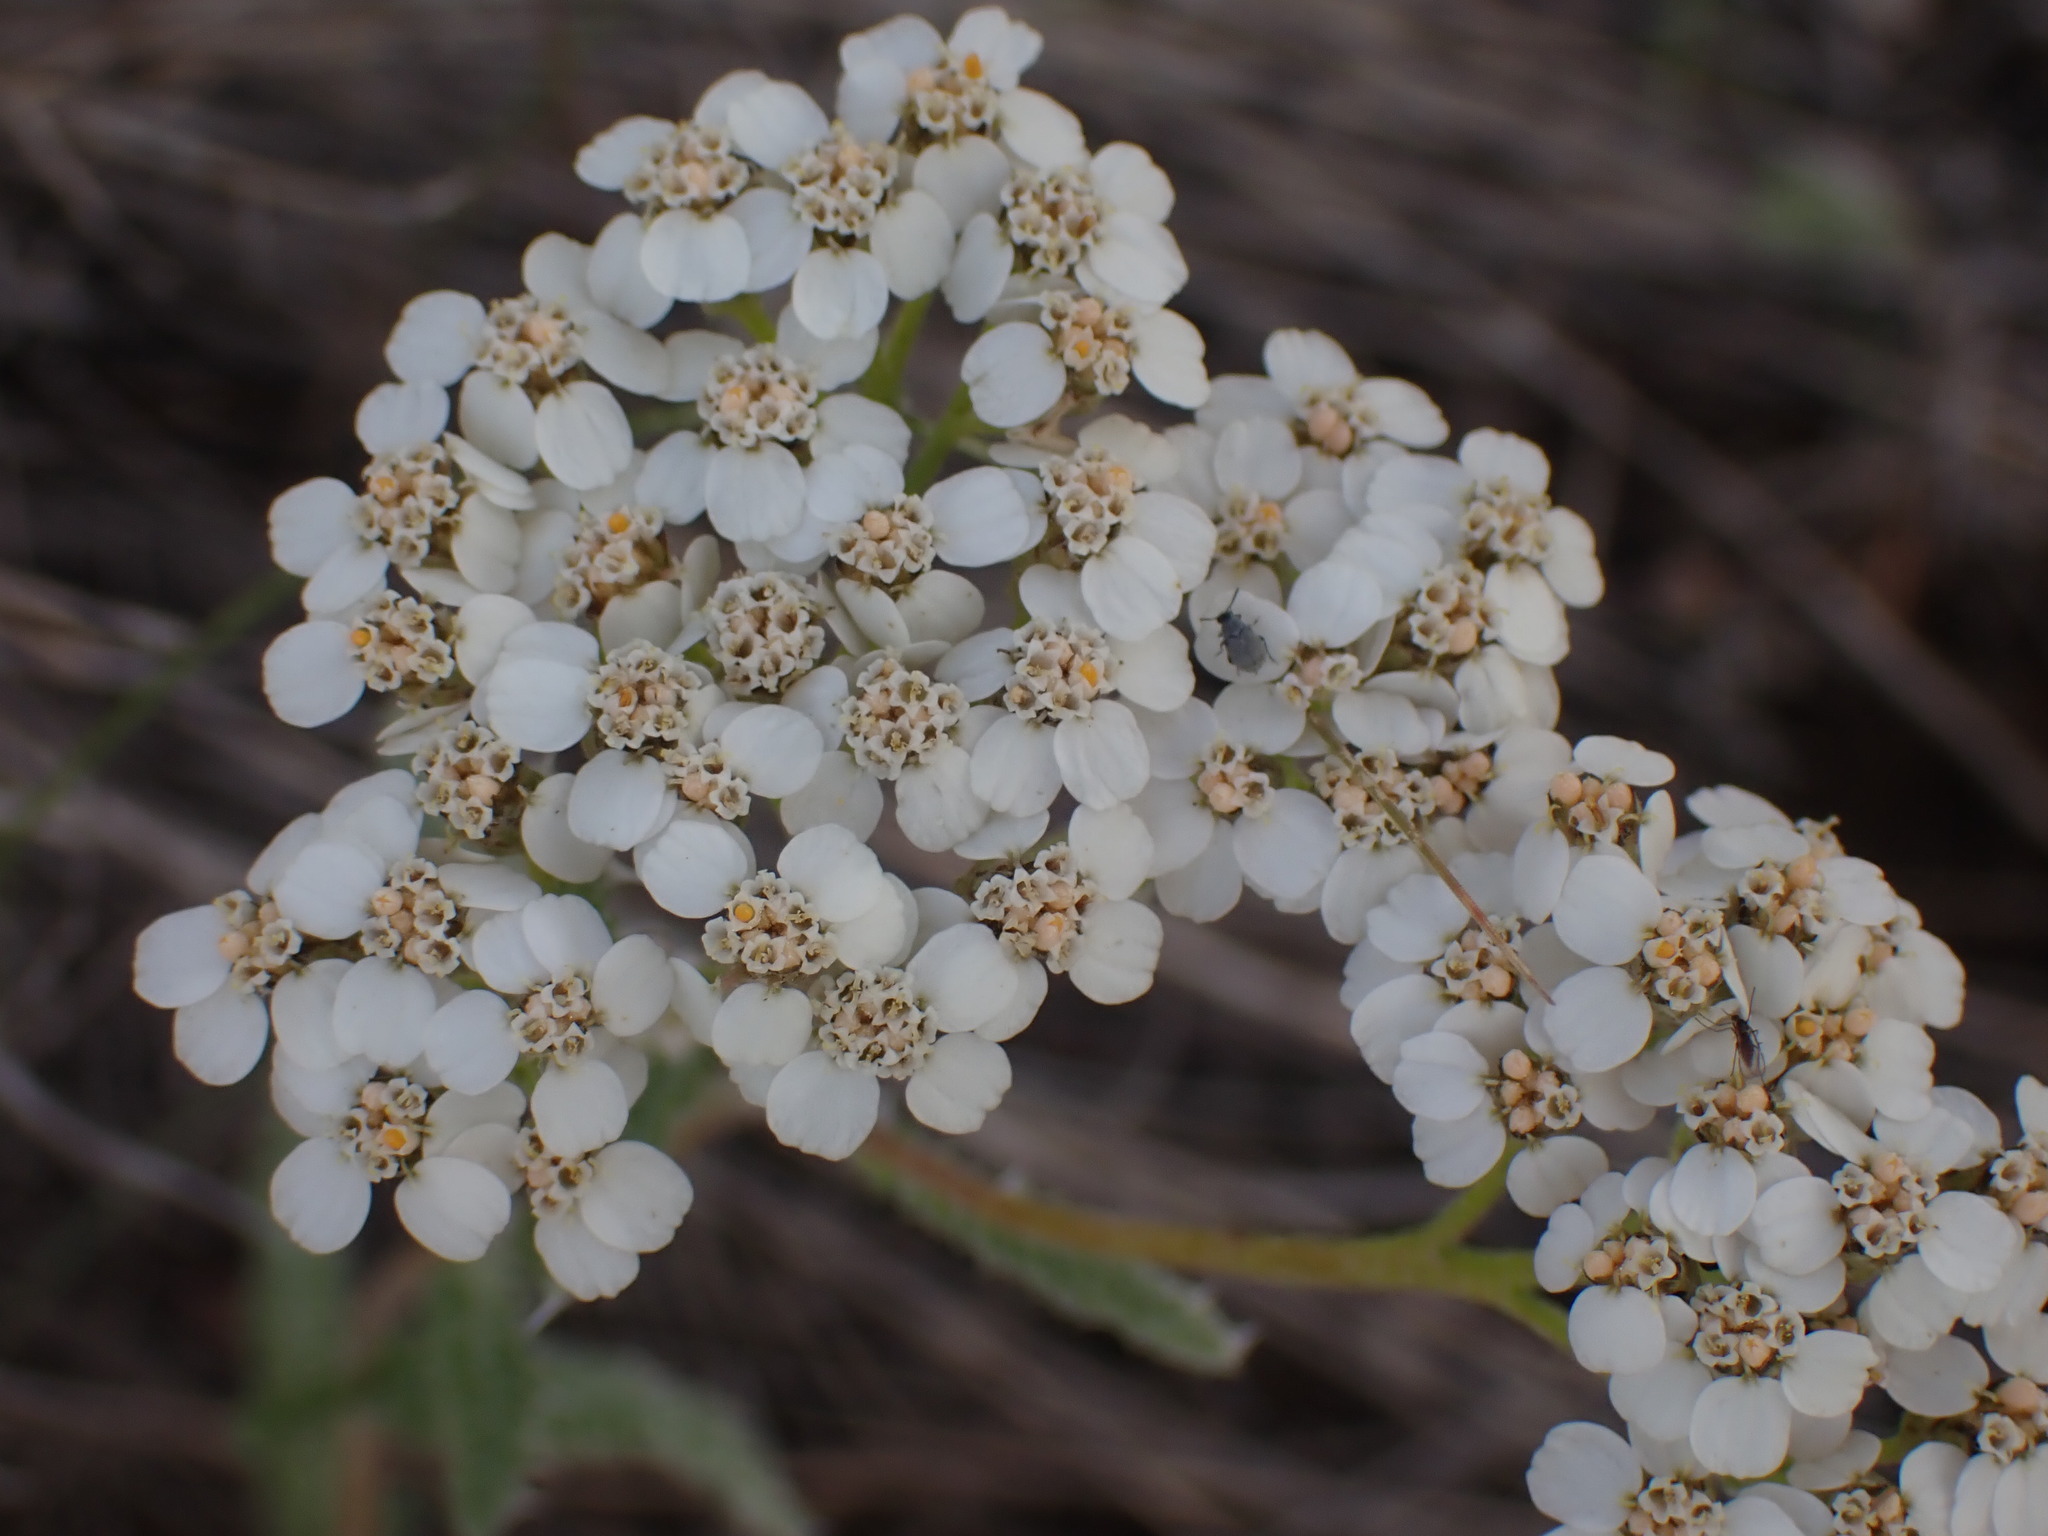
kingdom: Plantae
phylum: Tracheophyta
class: Magnoliopsida
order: Asterales
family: Asteraceae
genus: Achillea
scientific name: Achillea millefolium
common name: Yarrow
